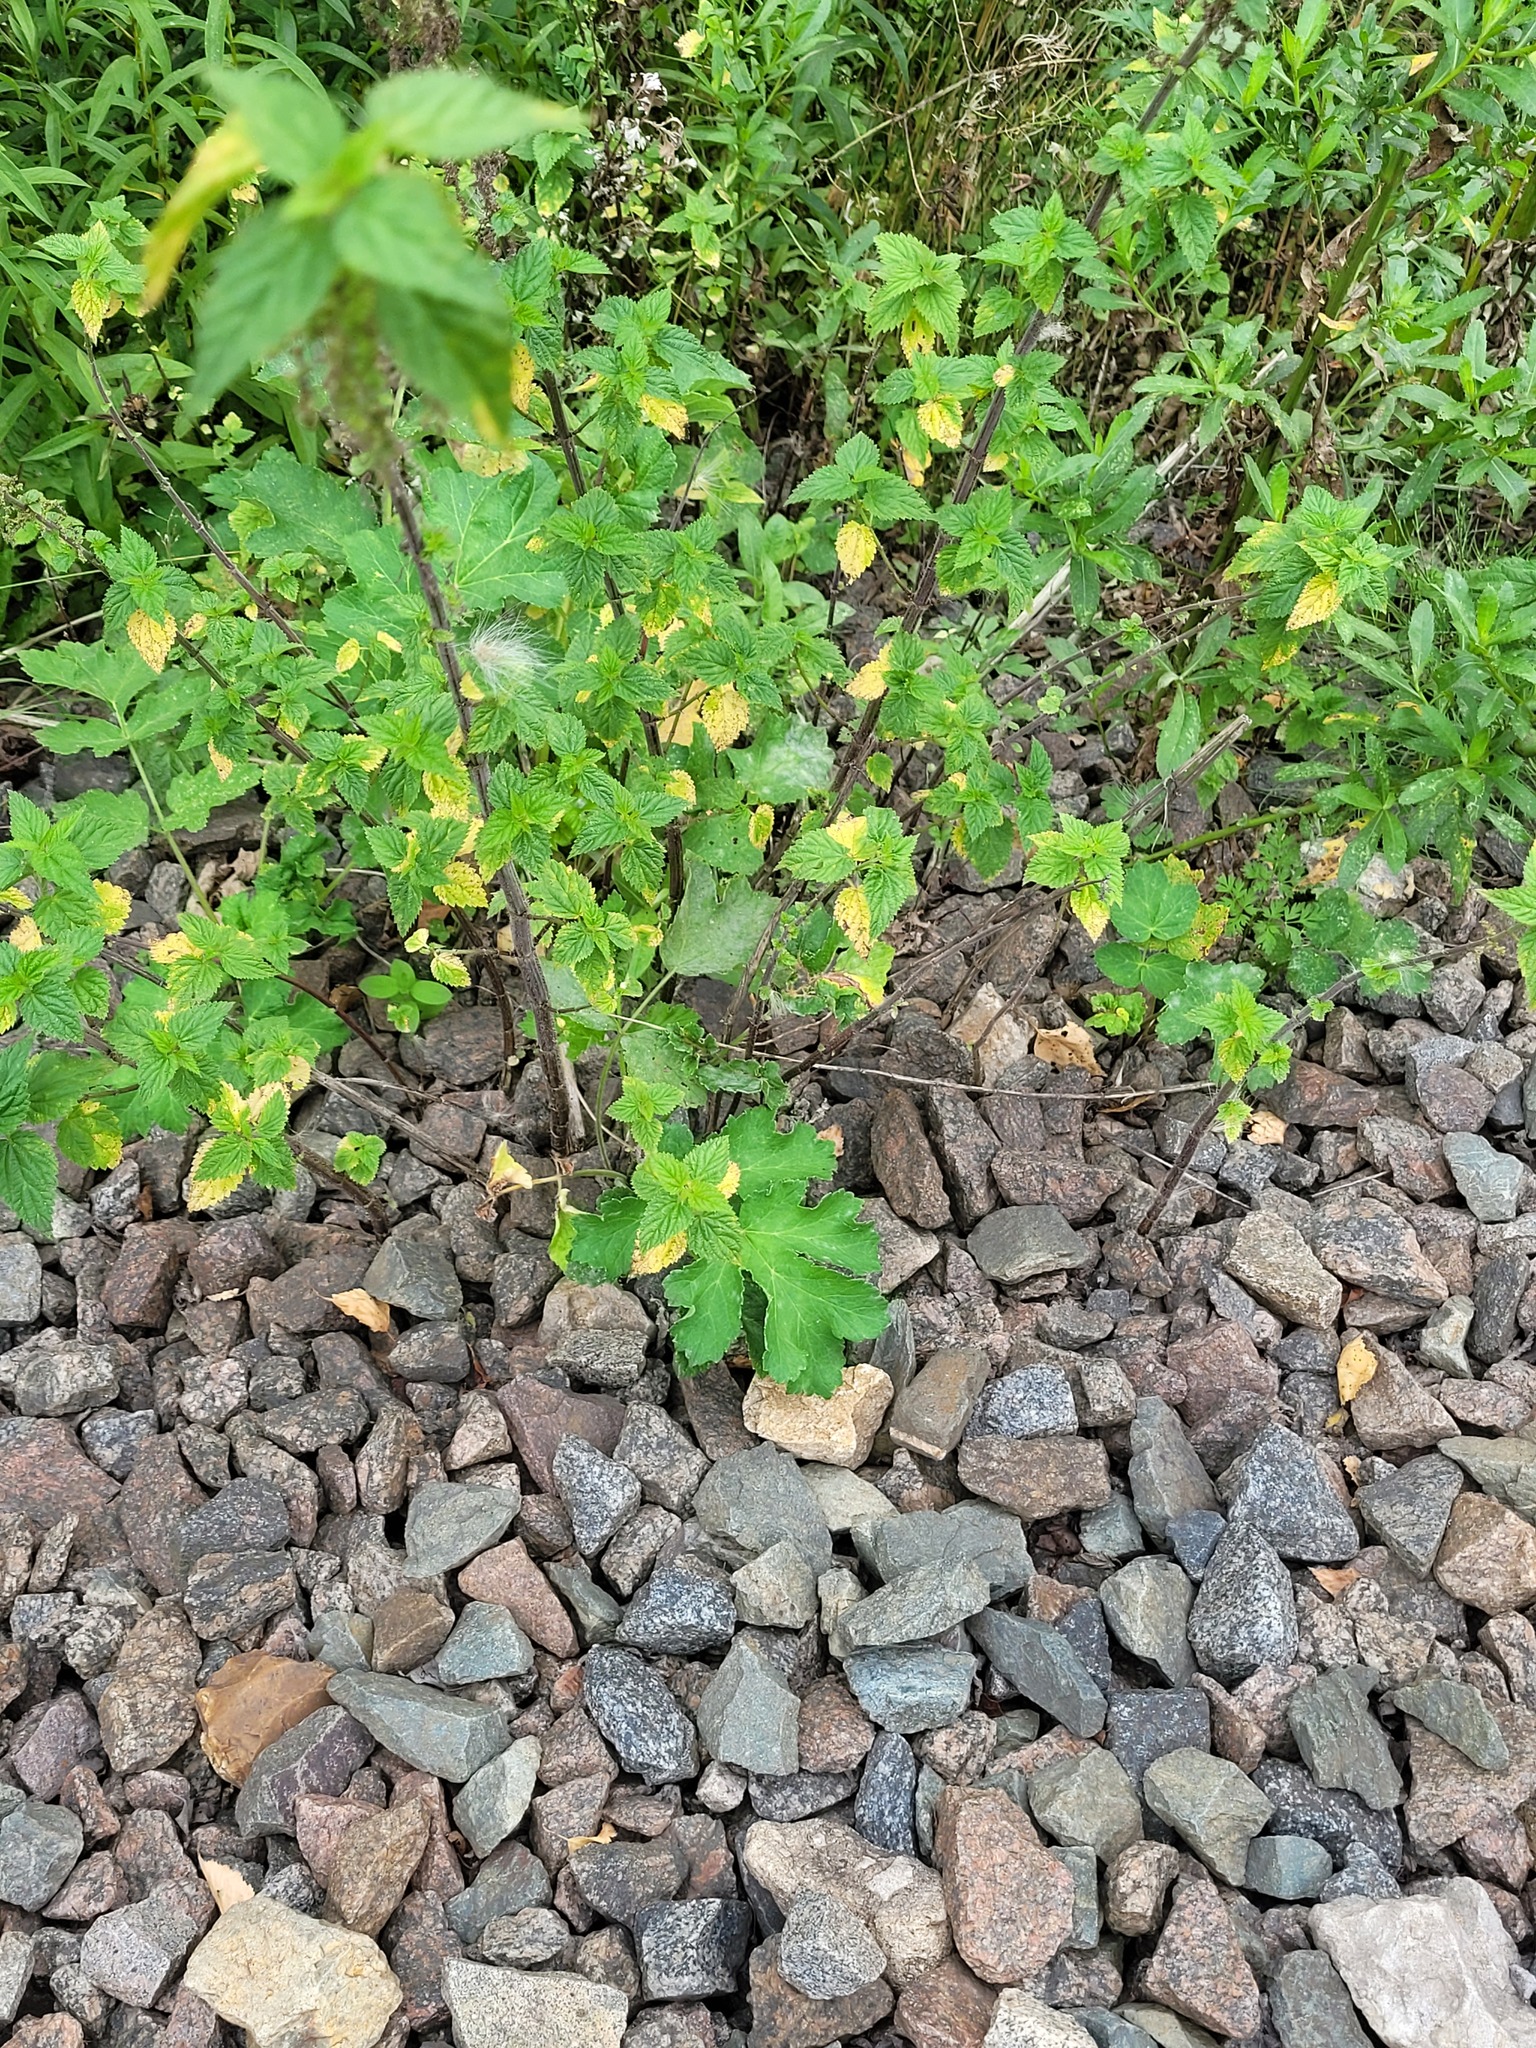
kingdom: Plantae
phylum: Tracheophyta
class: Magnoliopsida
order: Apiales
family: Apiaceae
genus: Heracleum
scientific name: Heracleum sphondylium
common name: Hogweed
